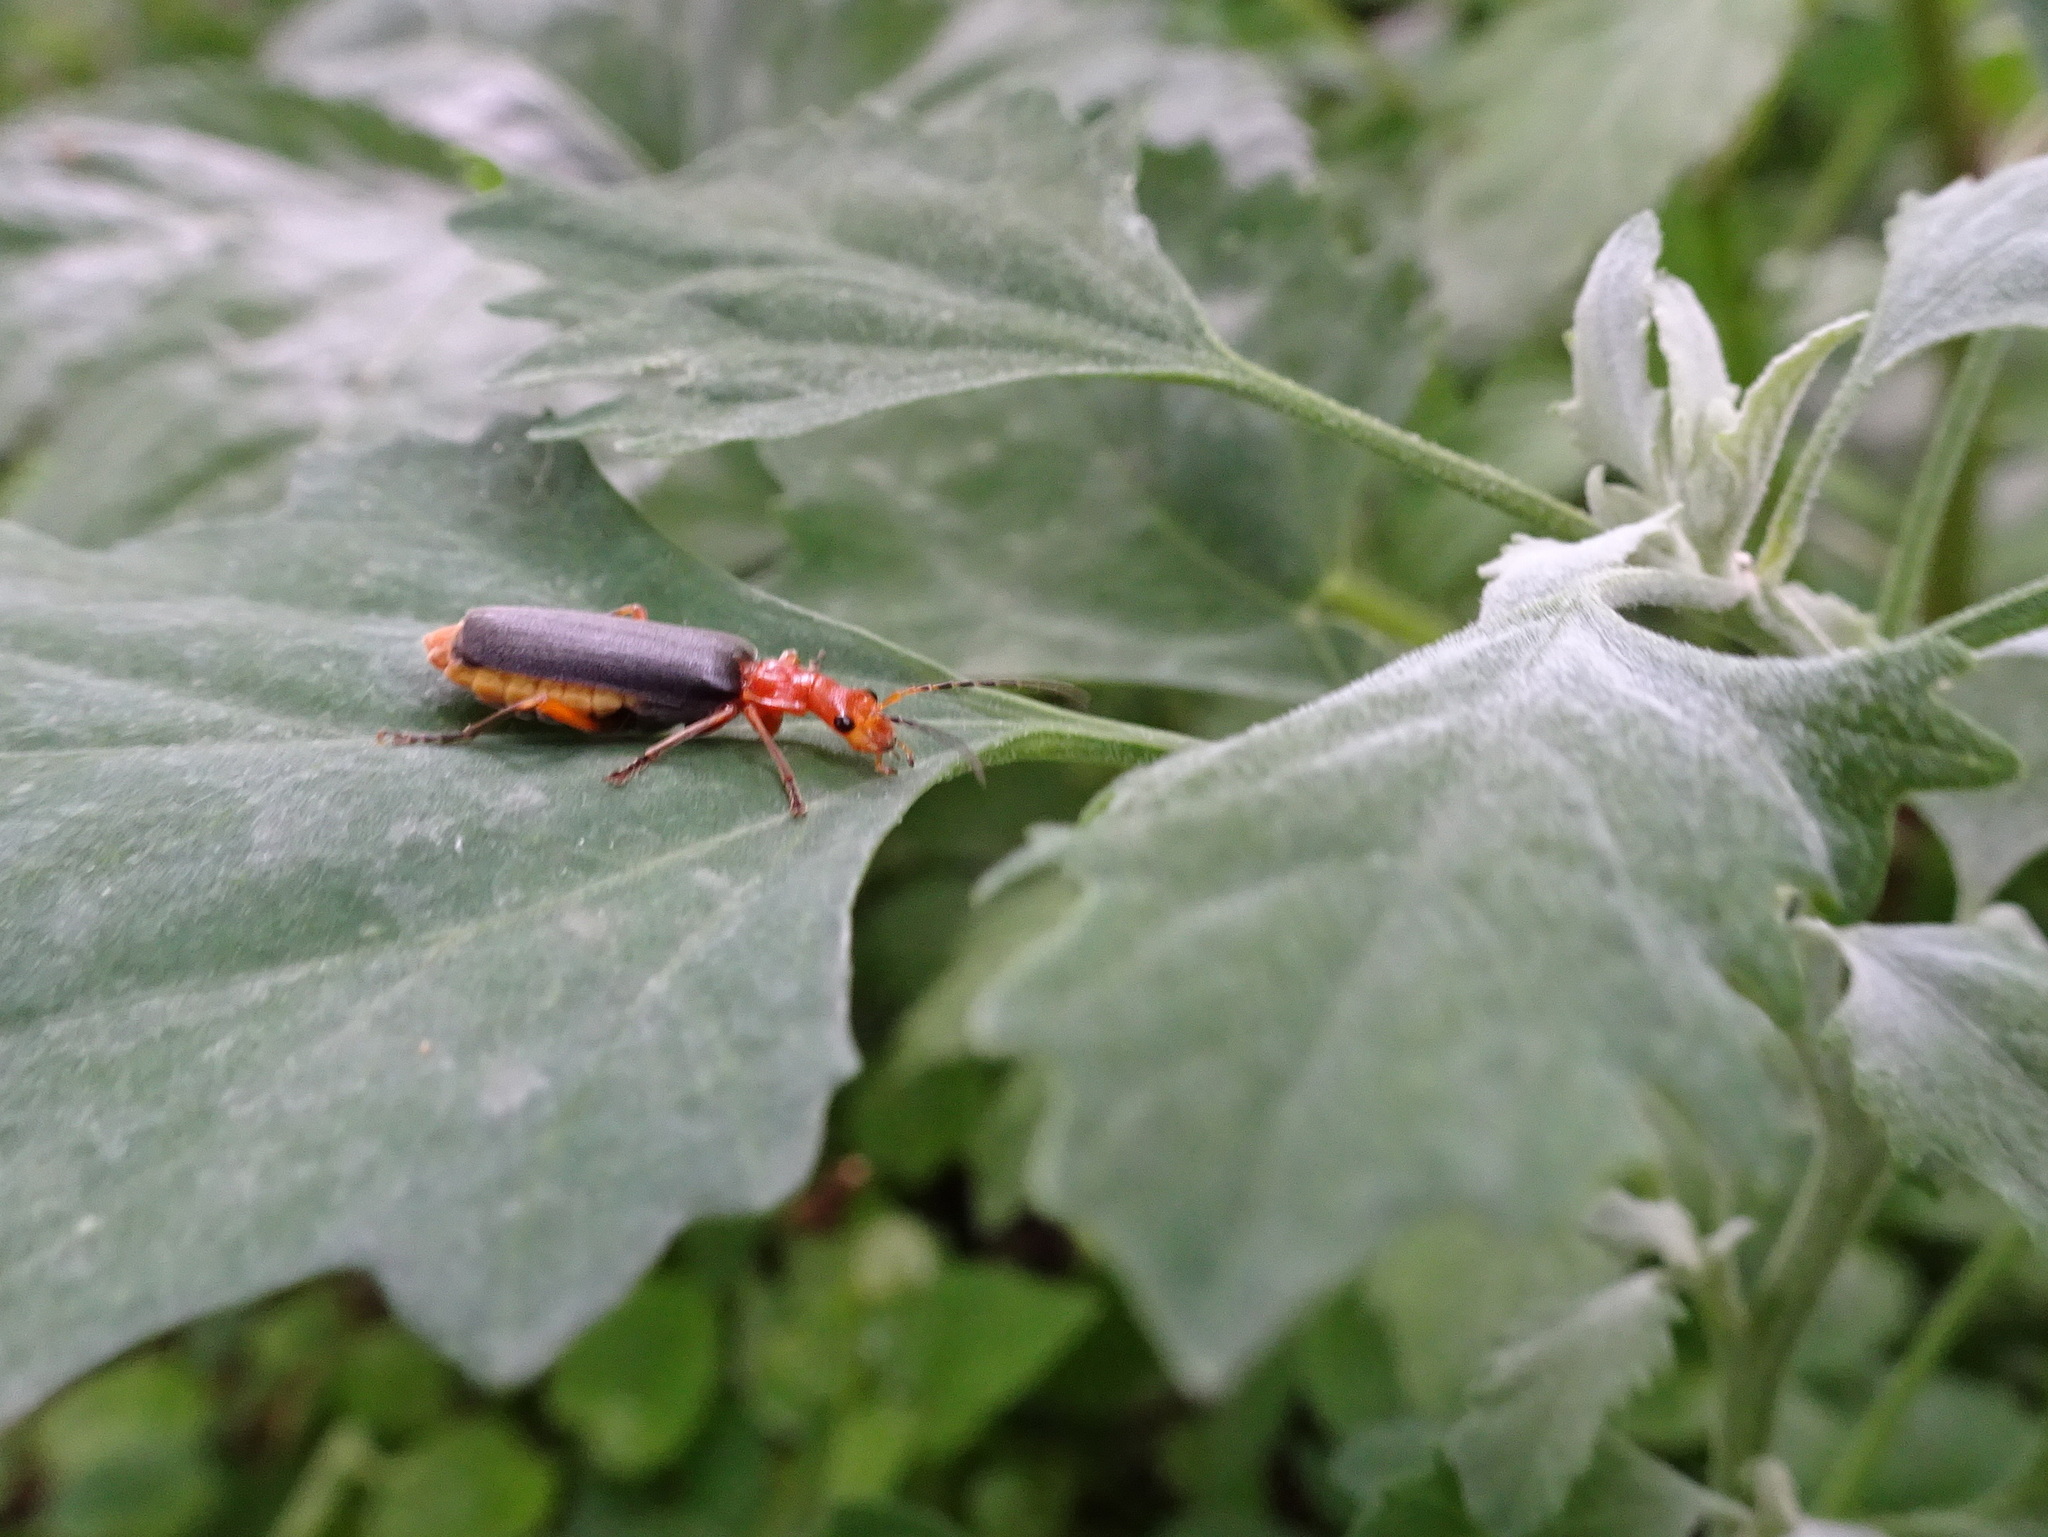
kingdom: Animalia
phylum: Arthropoda
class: Insecta
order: Coleoptera
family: Cantharidae
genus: Podabrus
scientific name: Podabrus tomentosus
